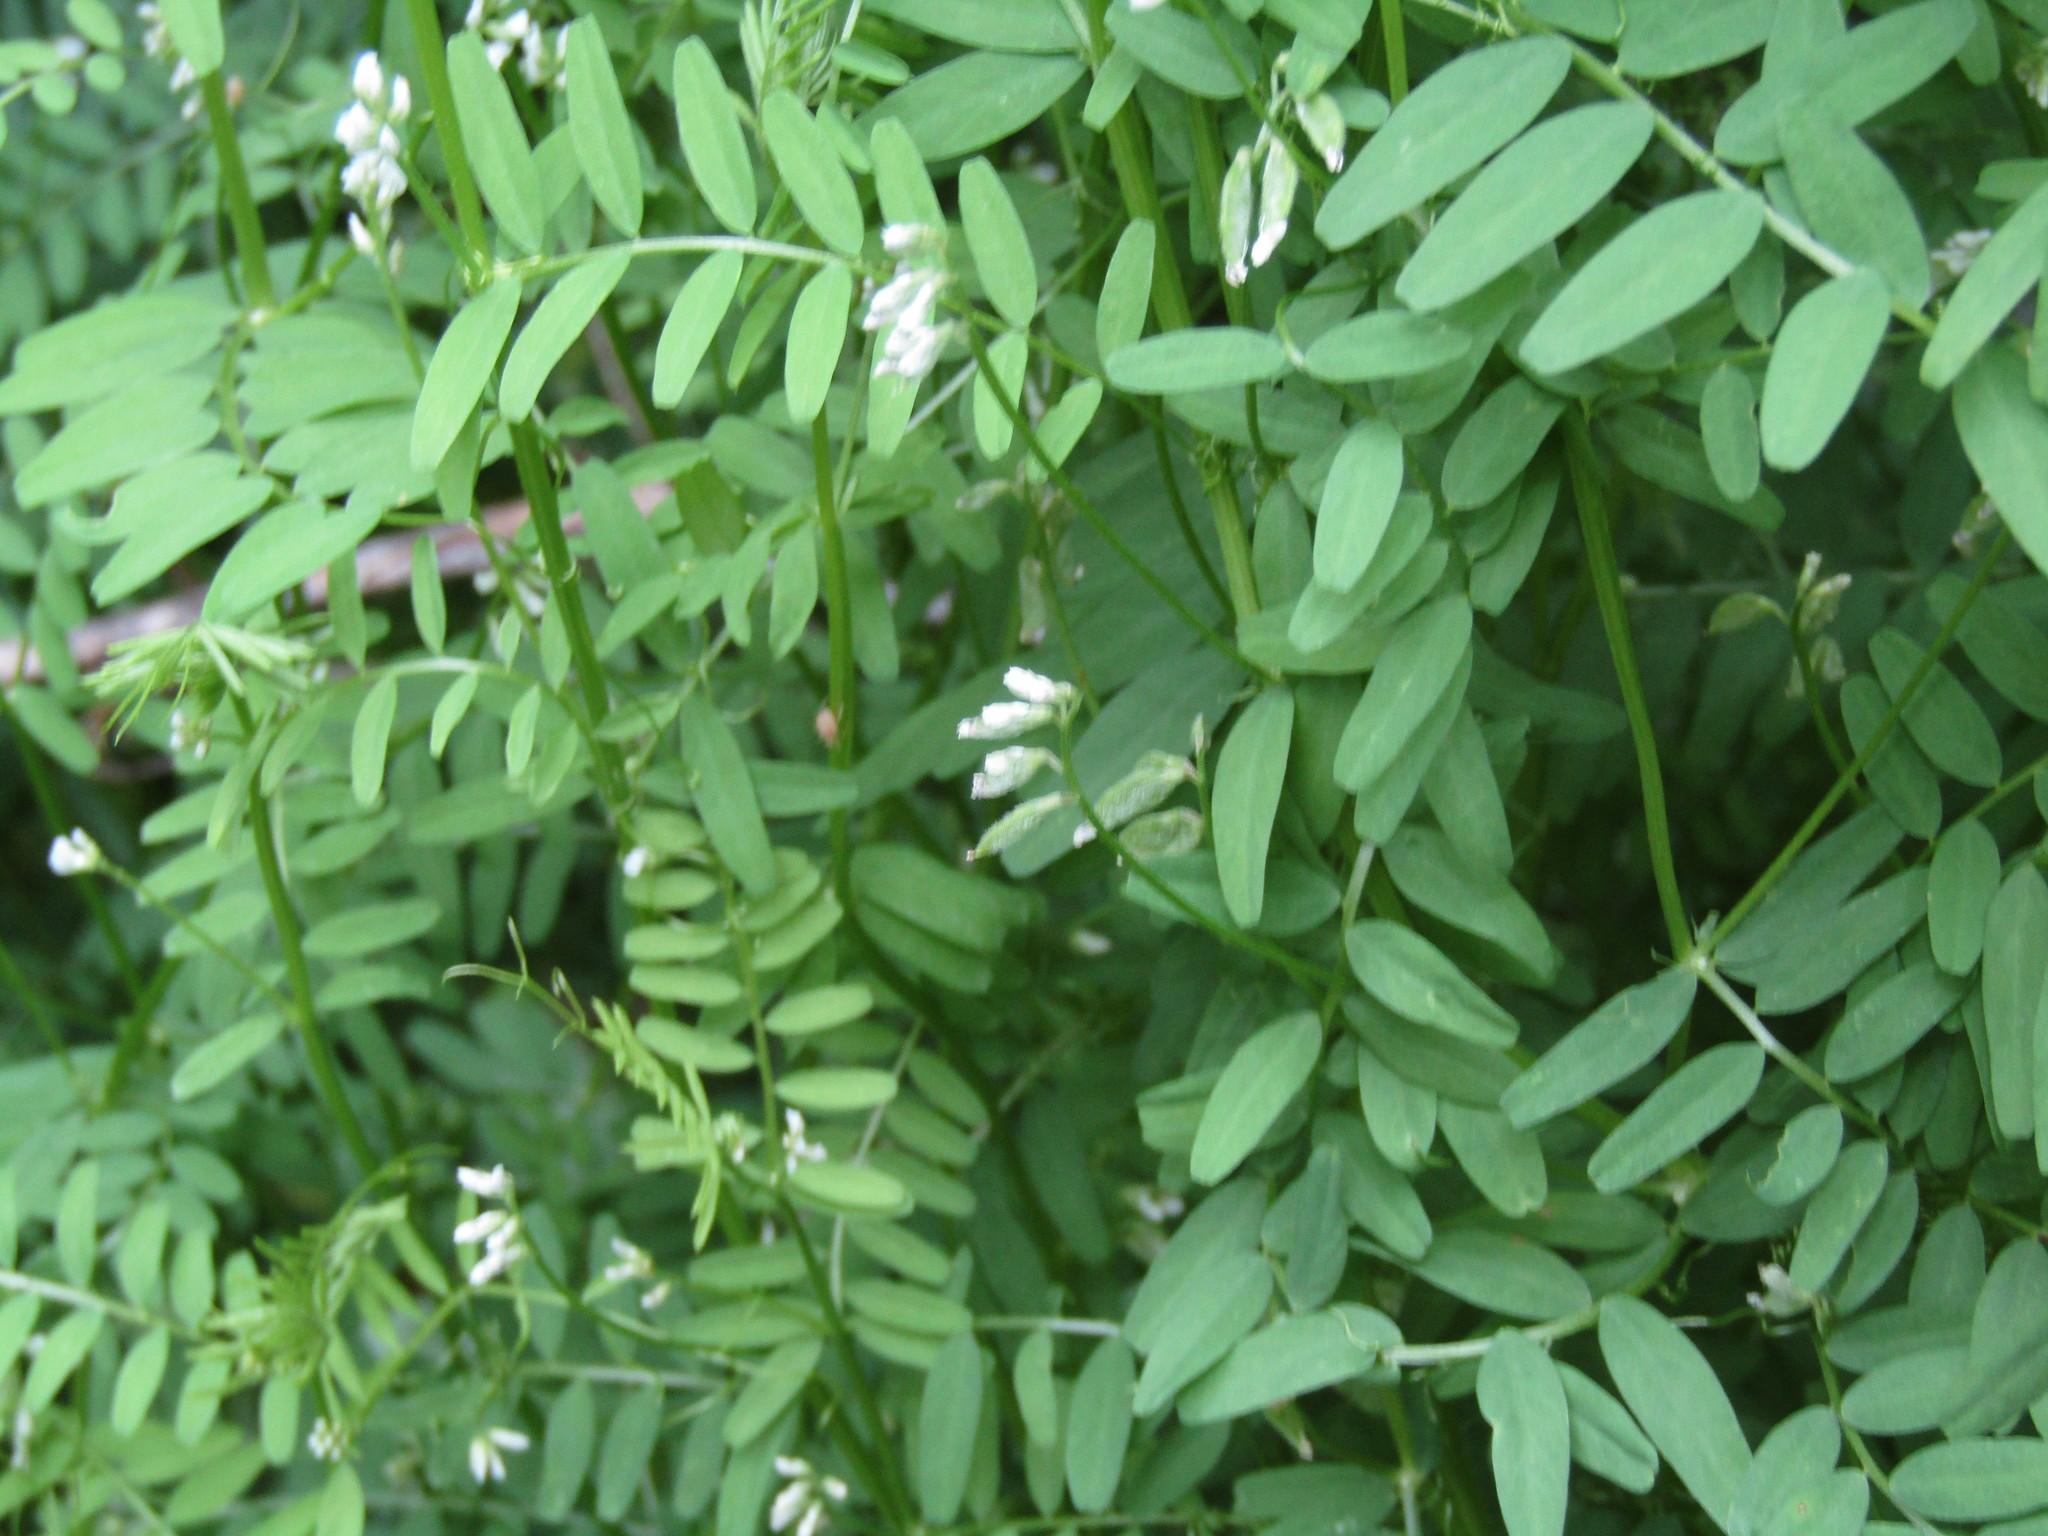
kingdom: Plantae
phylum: Tracheophyta
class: Magnoliopsida
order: Fabales
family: Fabaceae
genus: Vicia
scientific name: Vicia hirsuta
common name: Tiny vetch
